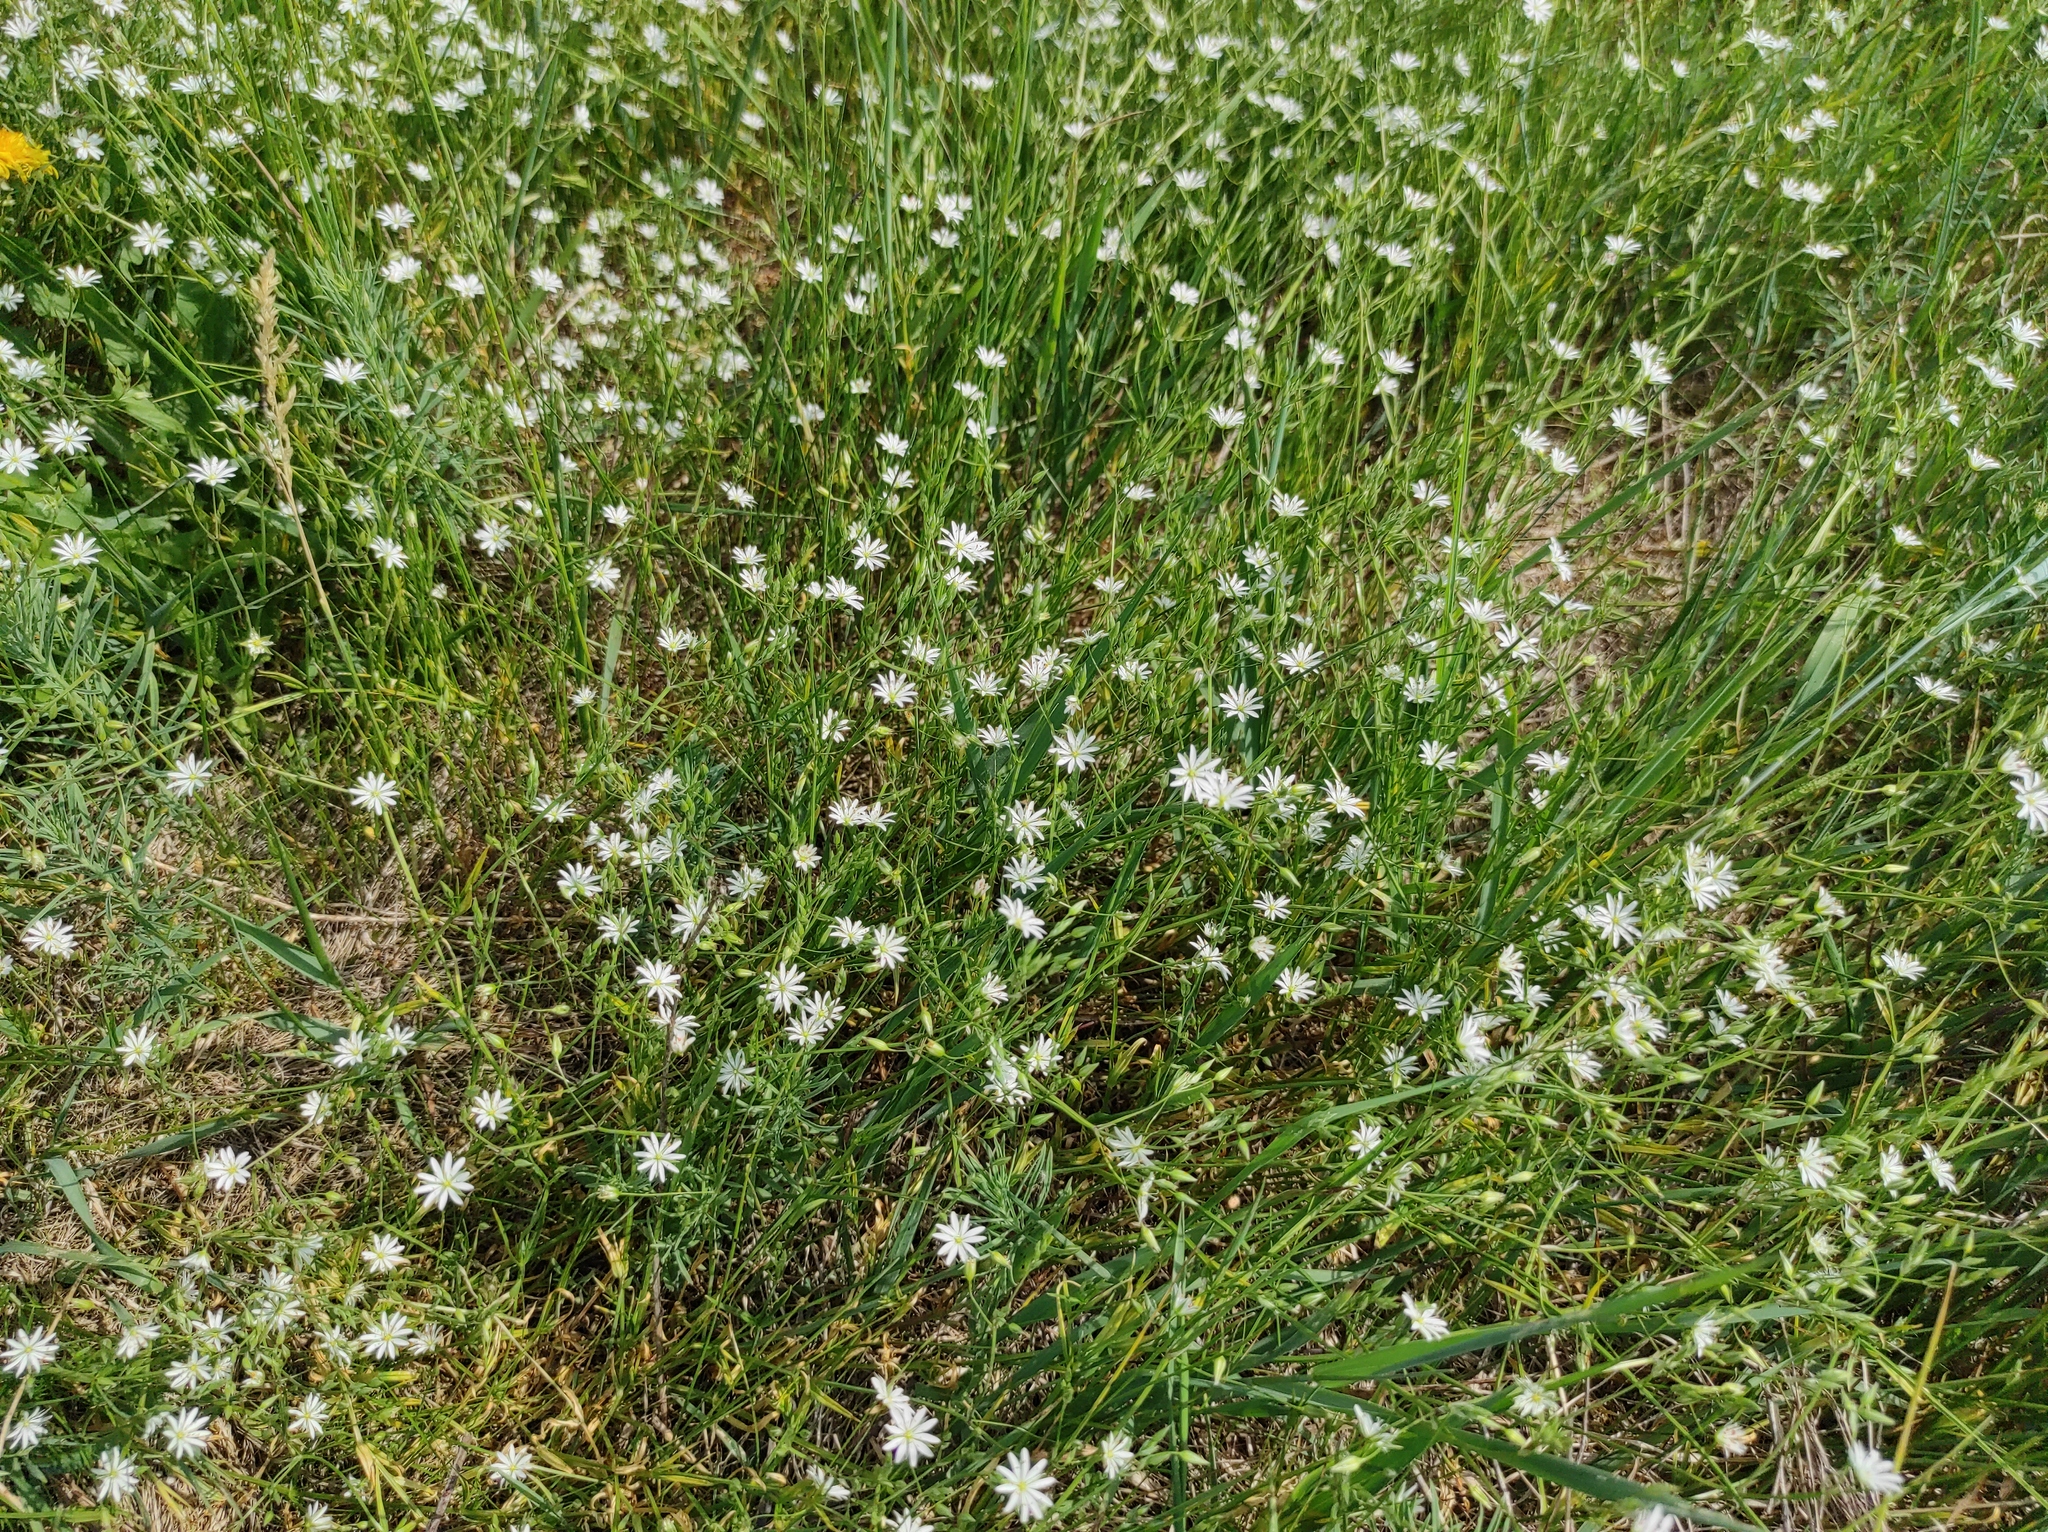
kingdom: Plantae
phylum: Tracheophyta
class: Magnoliopsida
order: Caryophyllales
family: Caryophyllaceae
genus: Stellaria
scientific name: Stellaria graminea
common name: Grass-like starwort
